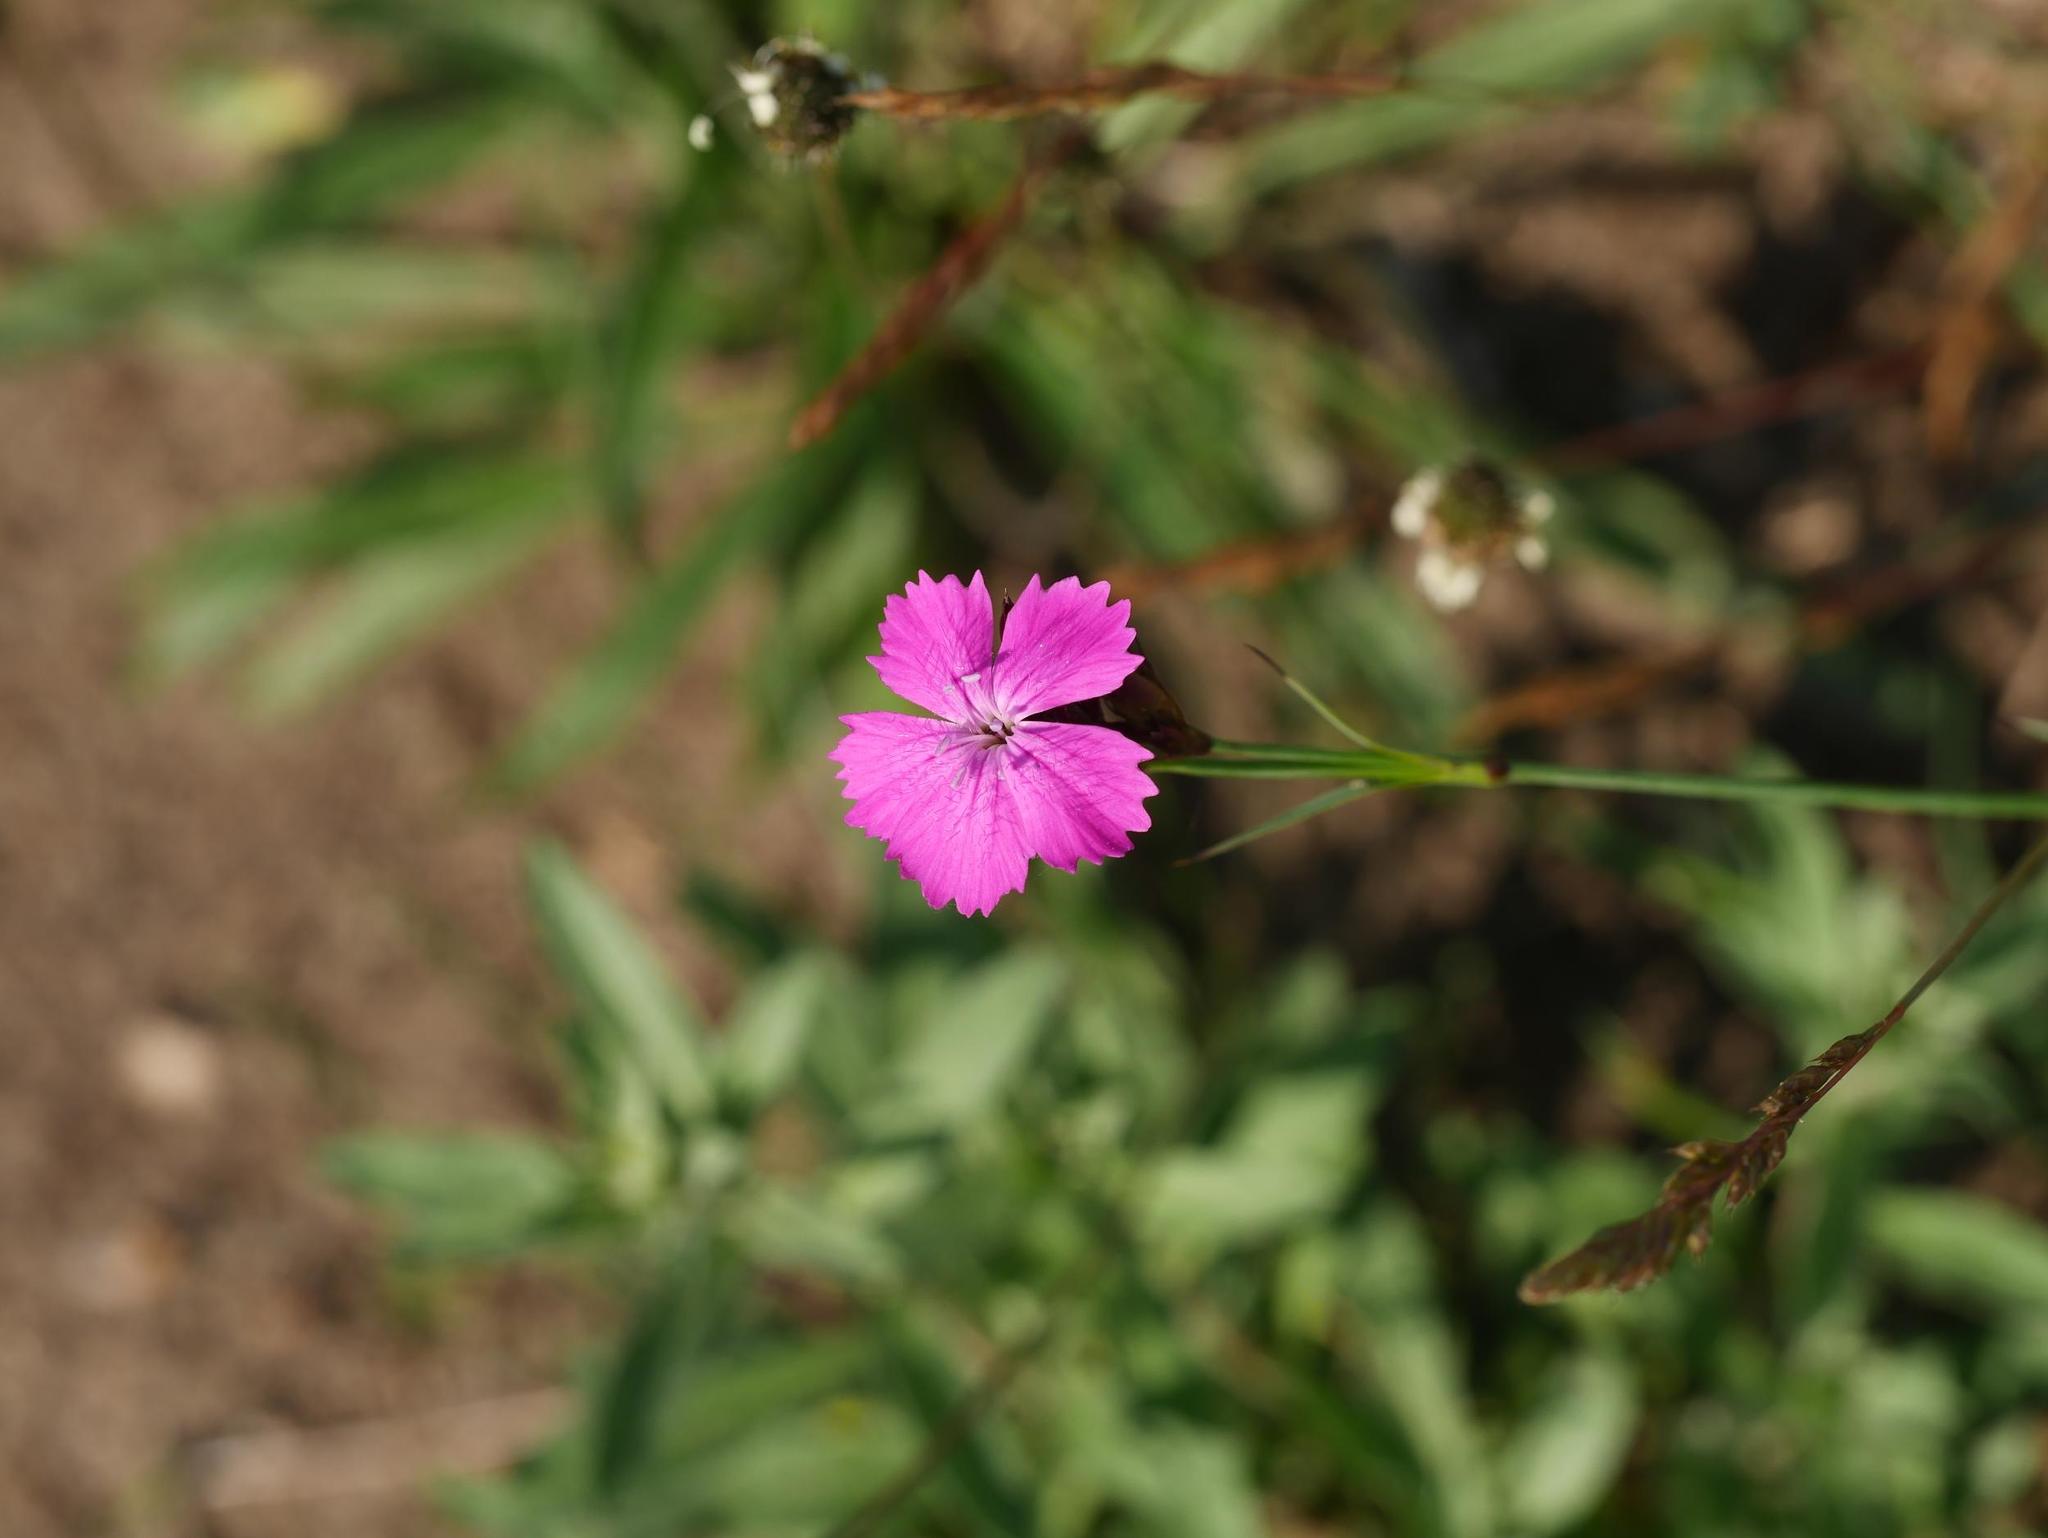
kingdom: Plantae
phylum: Tracheophyta
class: Magnoliopsida
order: Caryophyllales
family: Caryophyllaceae
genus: Dianthus
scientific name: Dianthus carthusianorum
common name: Carthusian pink
